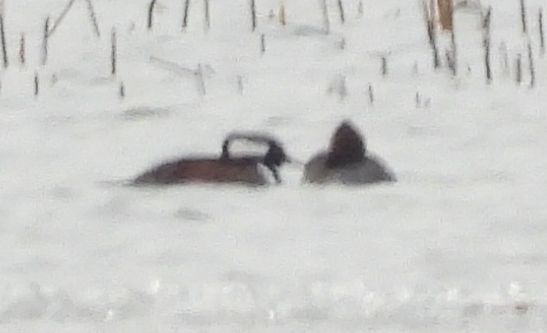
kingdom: Animalia
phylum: Chordata
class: Aves
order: Anseriformes
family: Anatidae
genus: Lophodytes
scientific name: Lophodytes cucullatus
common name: Hooded merganser
